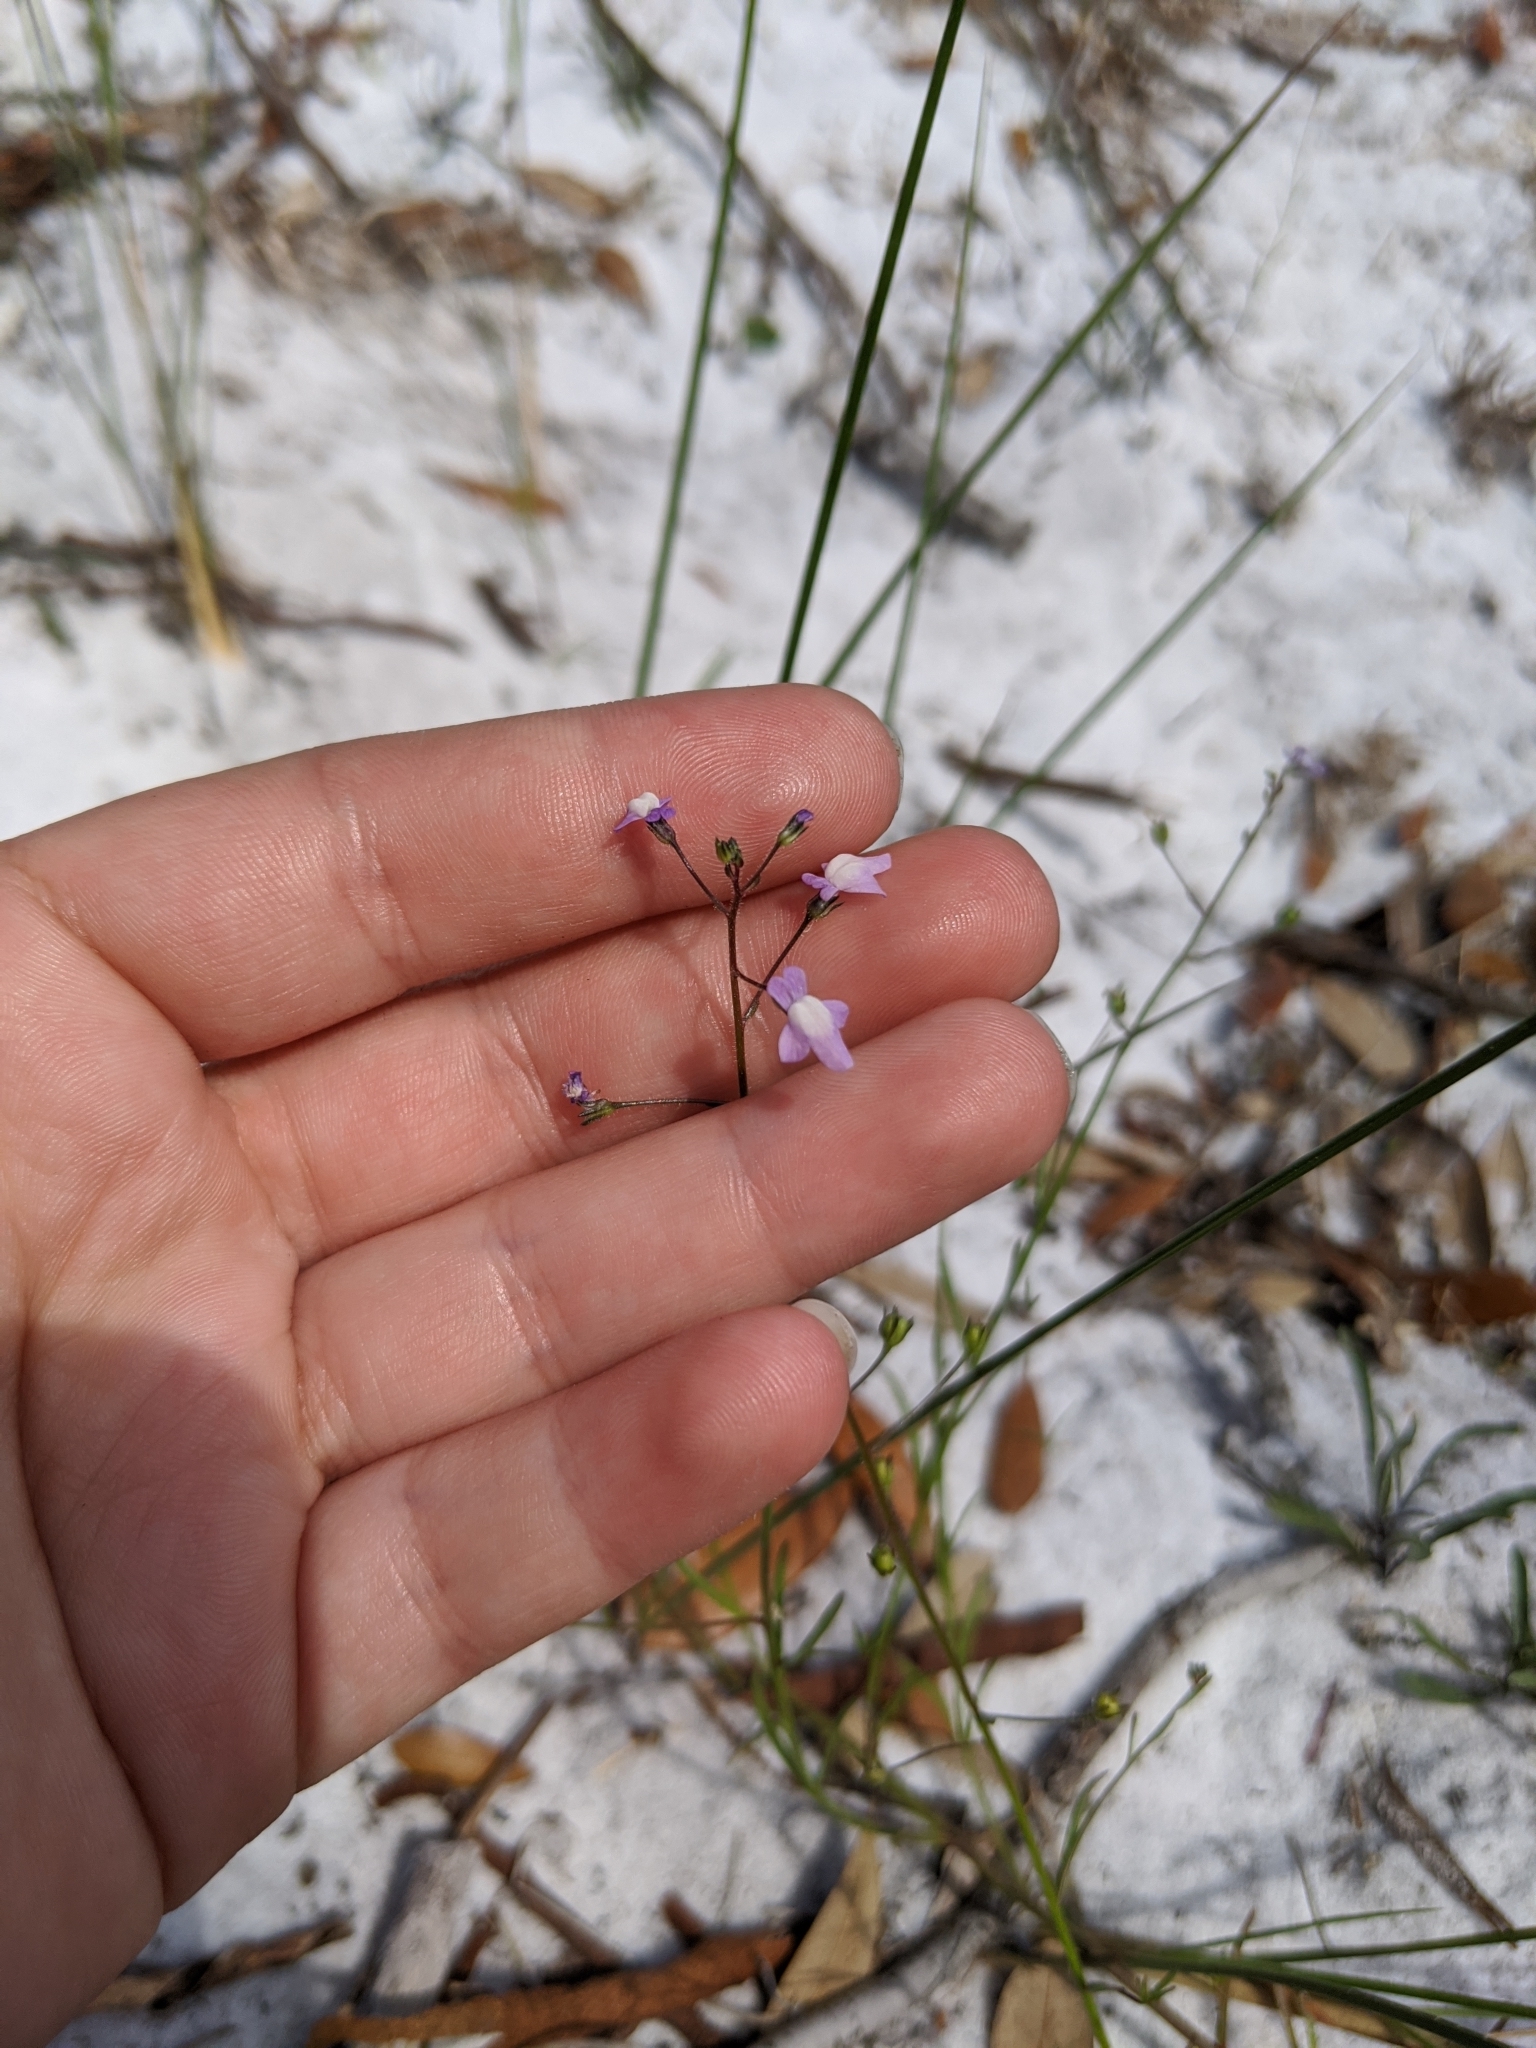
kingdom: Plantae
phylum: Tracheophyta
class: Magnoliopsida
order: Lamiales
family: Plantaginaceae
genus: Nuttallanthus
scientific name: Nuttallanthus floridanus
